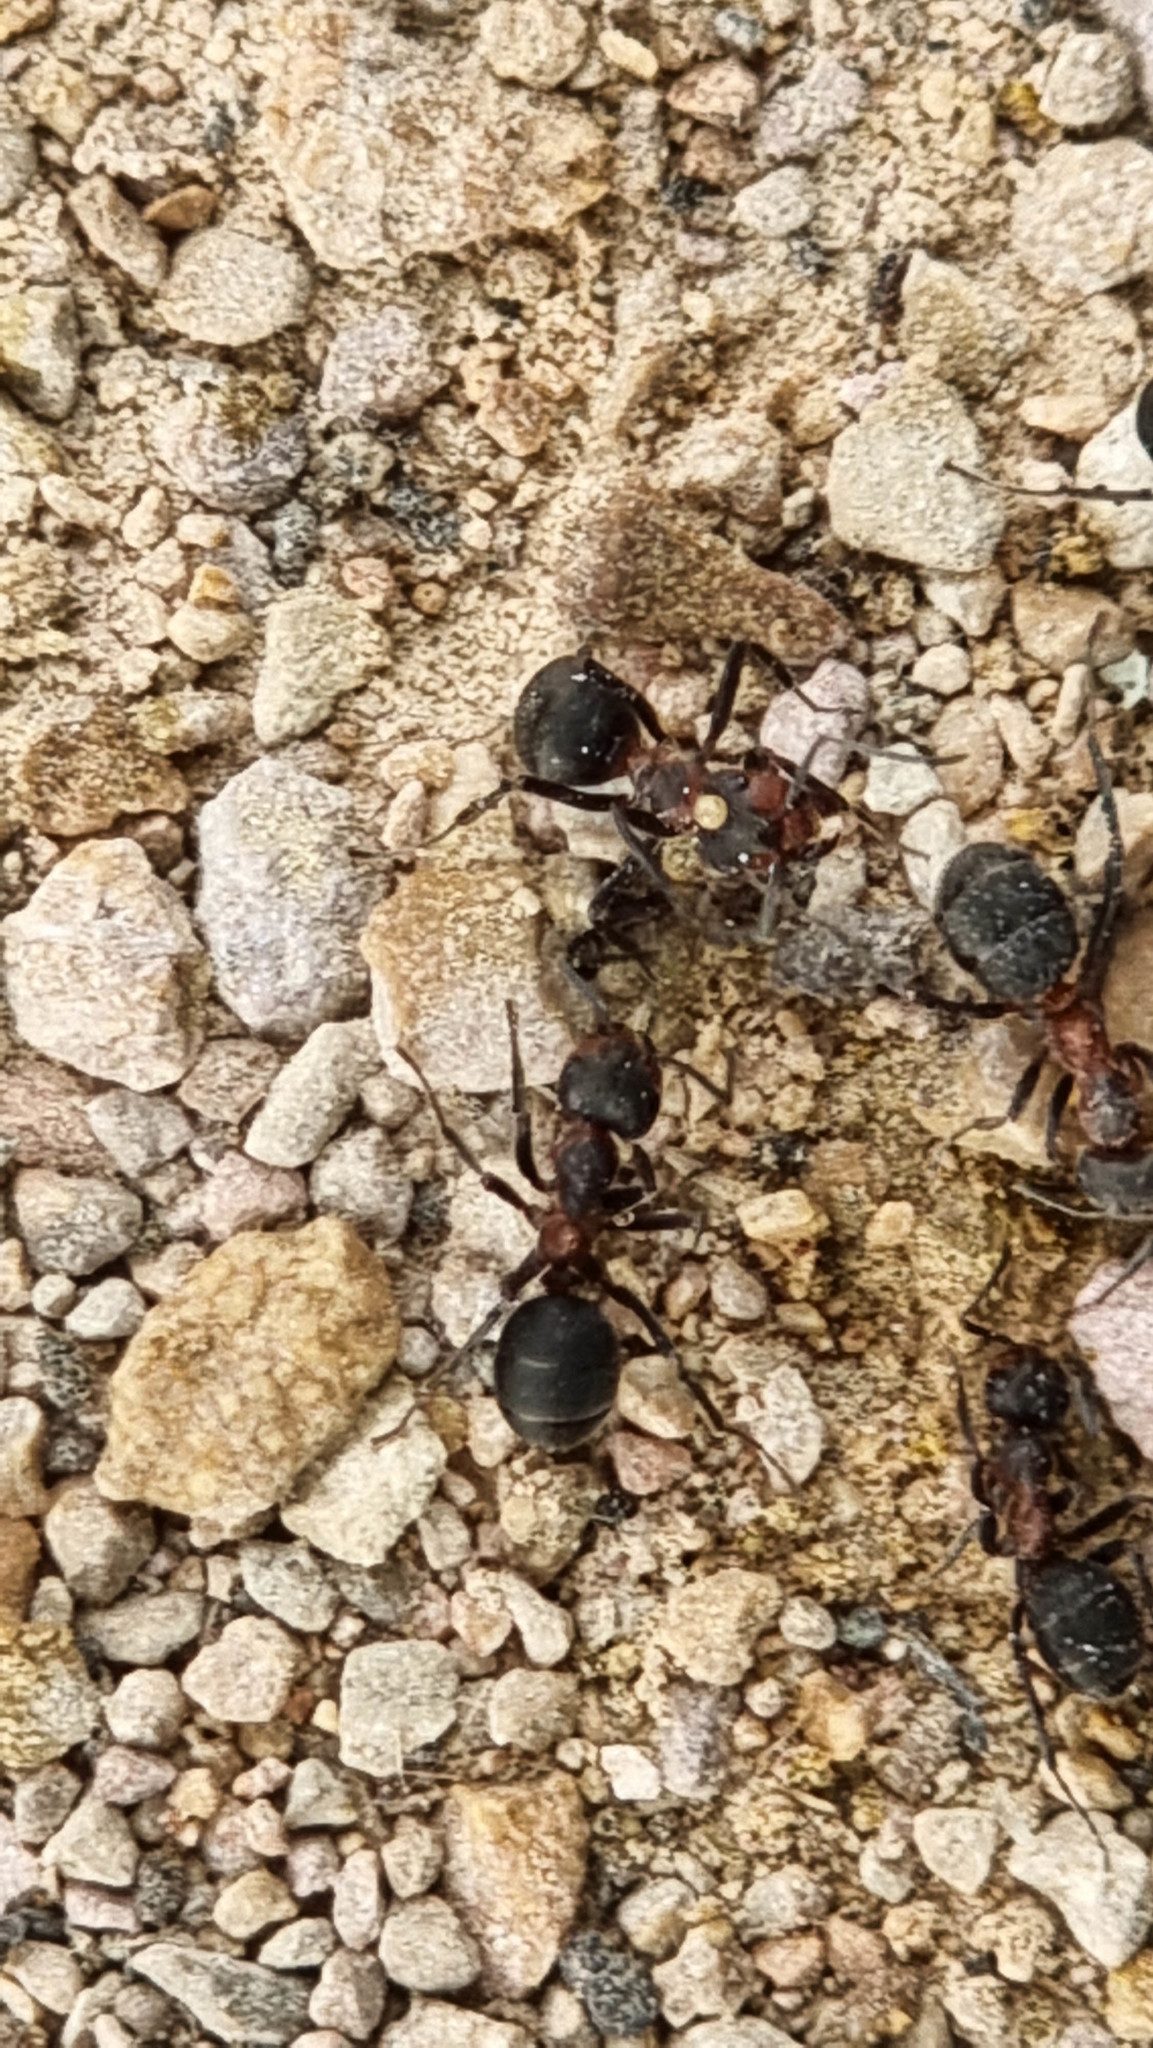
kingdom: Animalia
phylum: Arthropoda
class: Insecta
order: Hymenoptera
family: Formicidae
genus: Formica
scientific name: Formica pratensis
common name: European red wood ant
